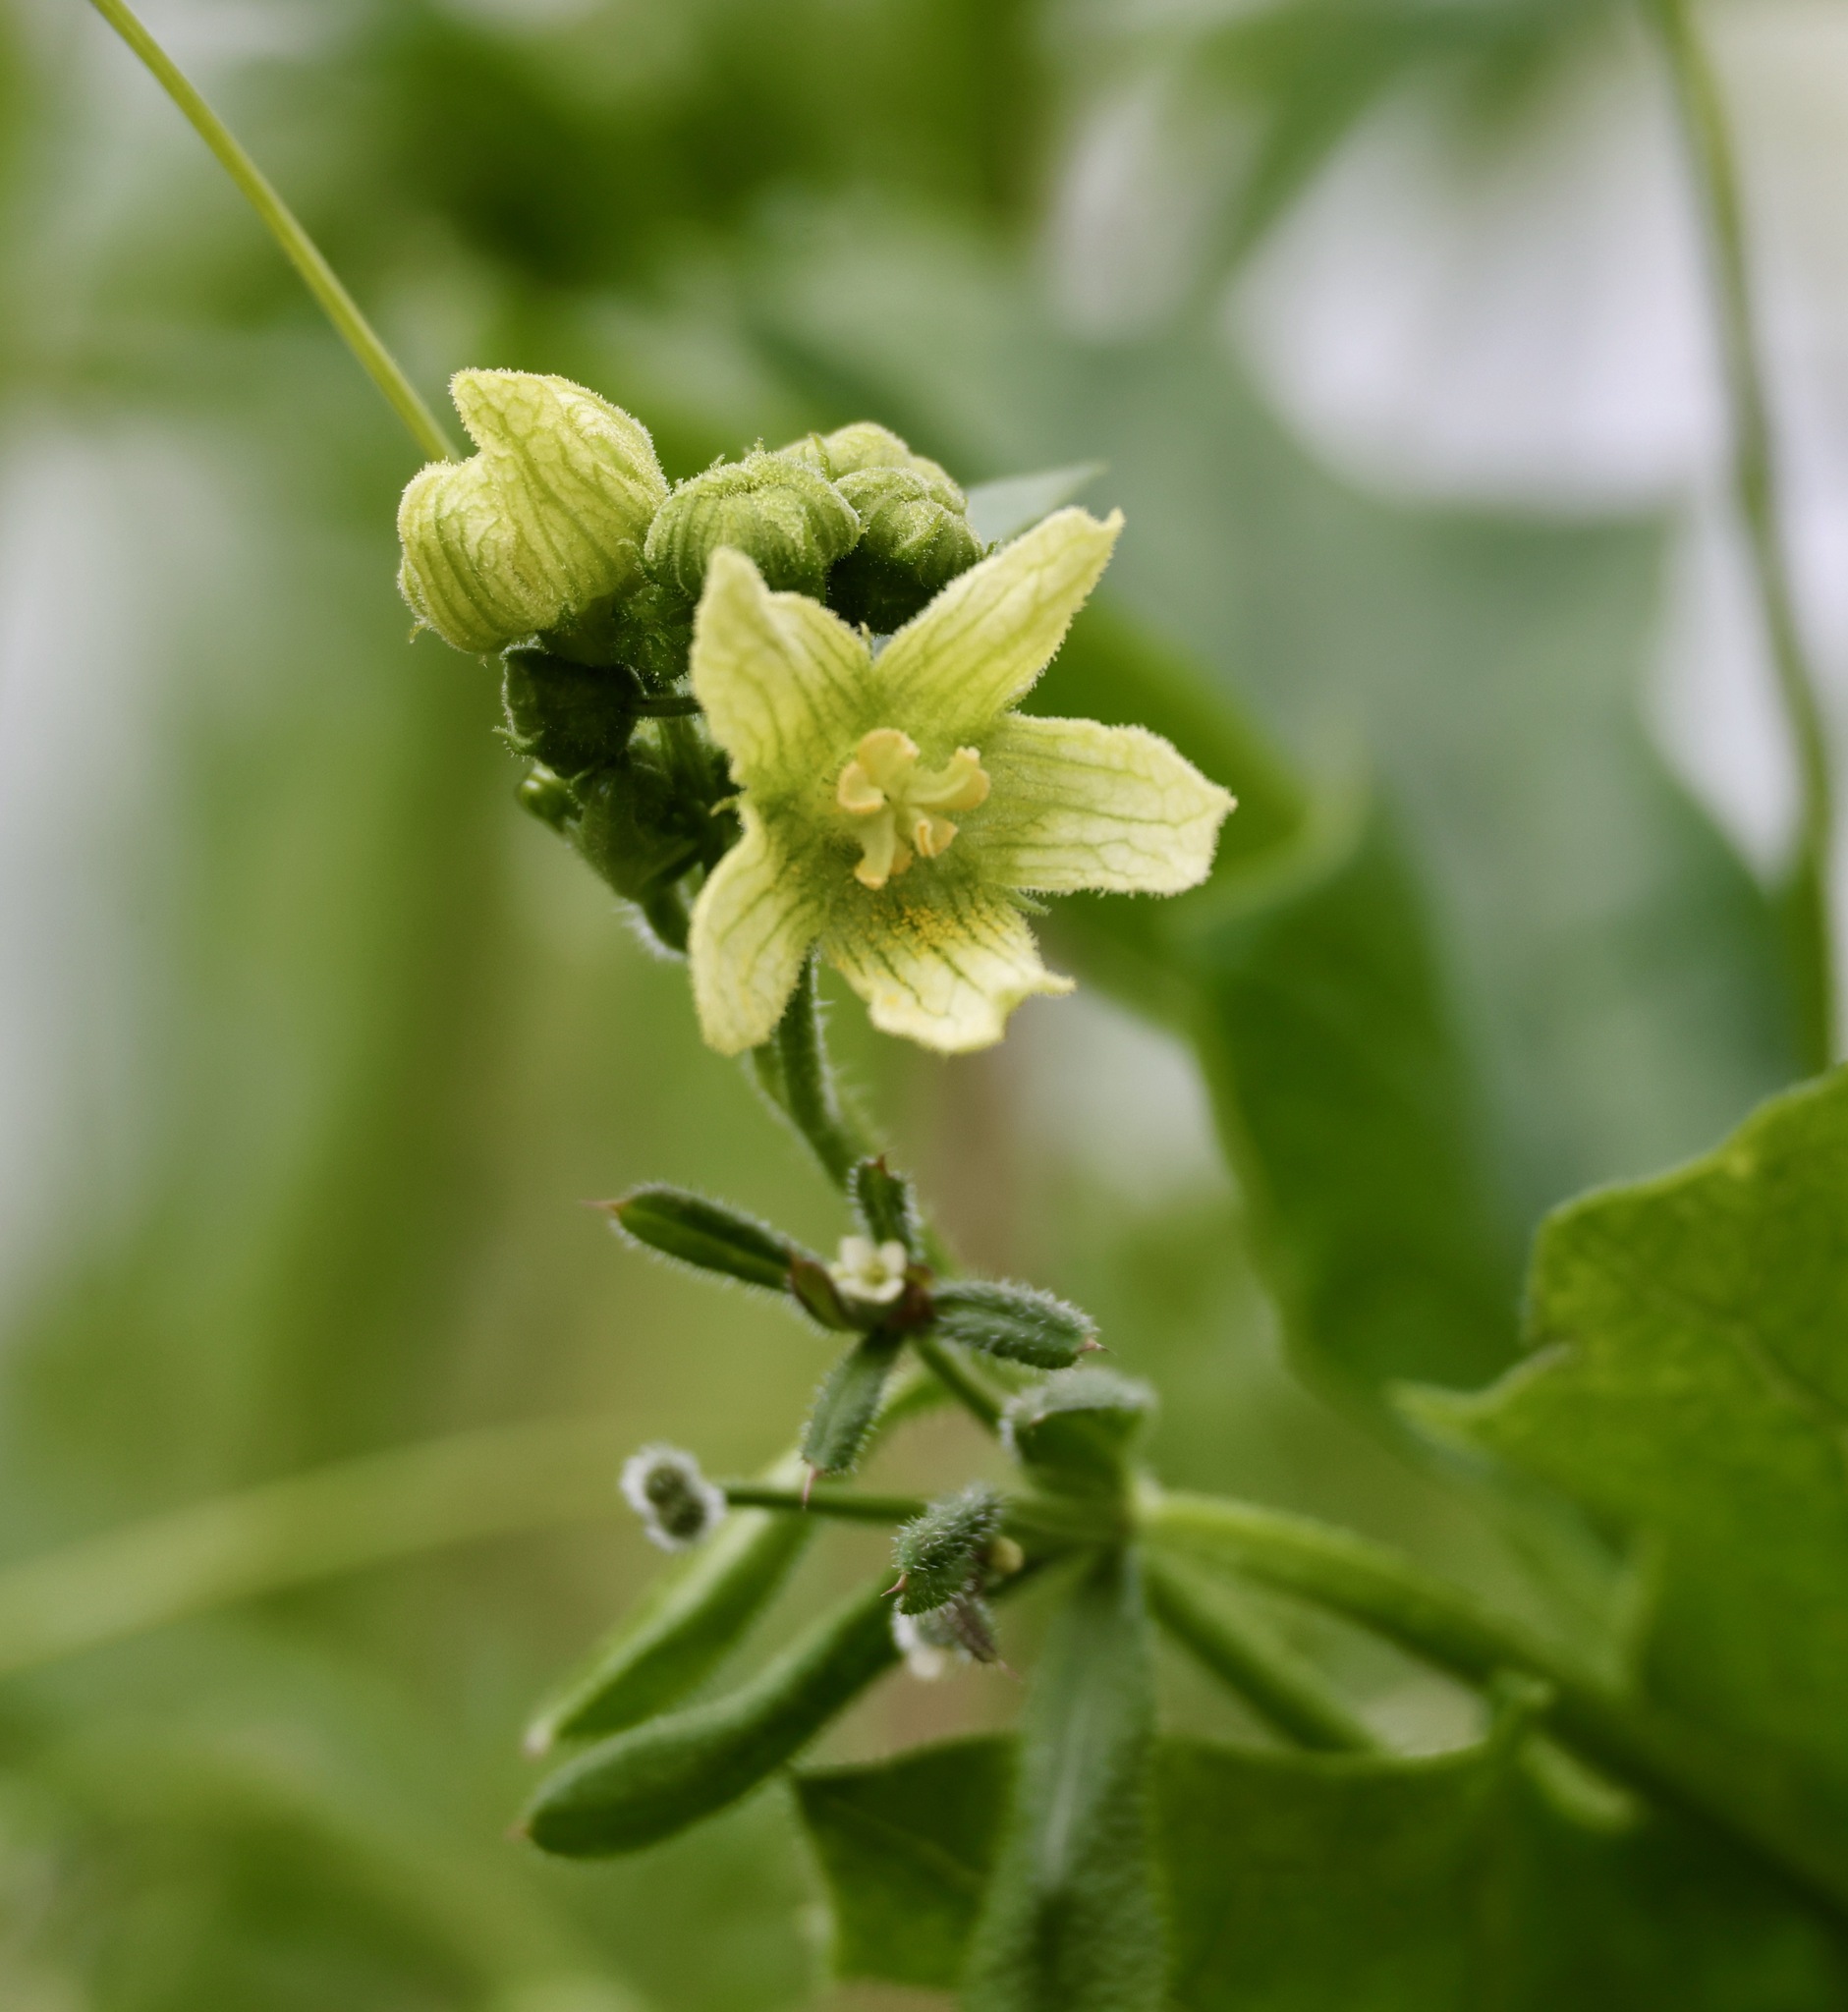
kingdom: Plantae
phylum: Tracheophyta
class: Magnoliopsida
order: Cucurbitales
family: Cucurbitaceae
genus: Bryonia
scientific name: Bryonia cretica
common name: Cretan bryony
